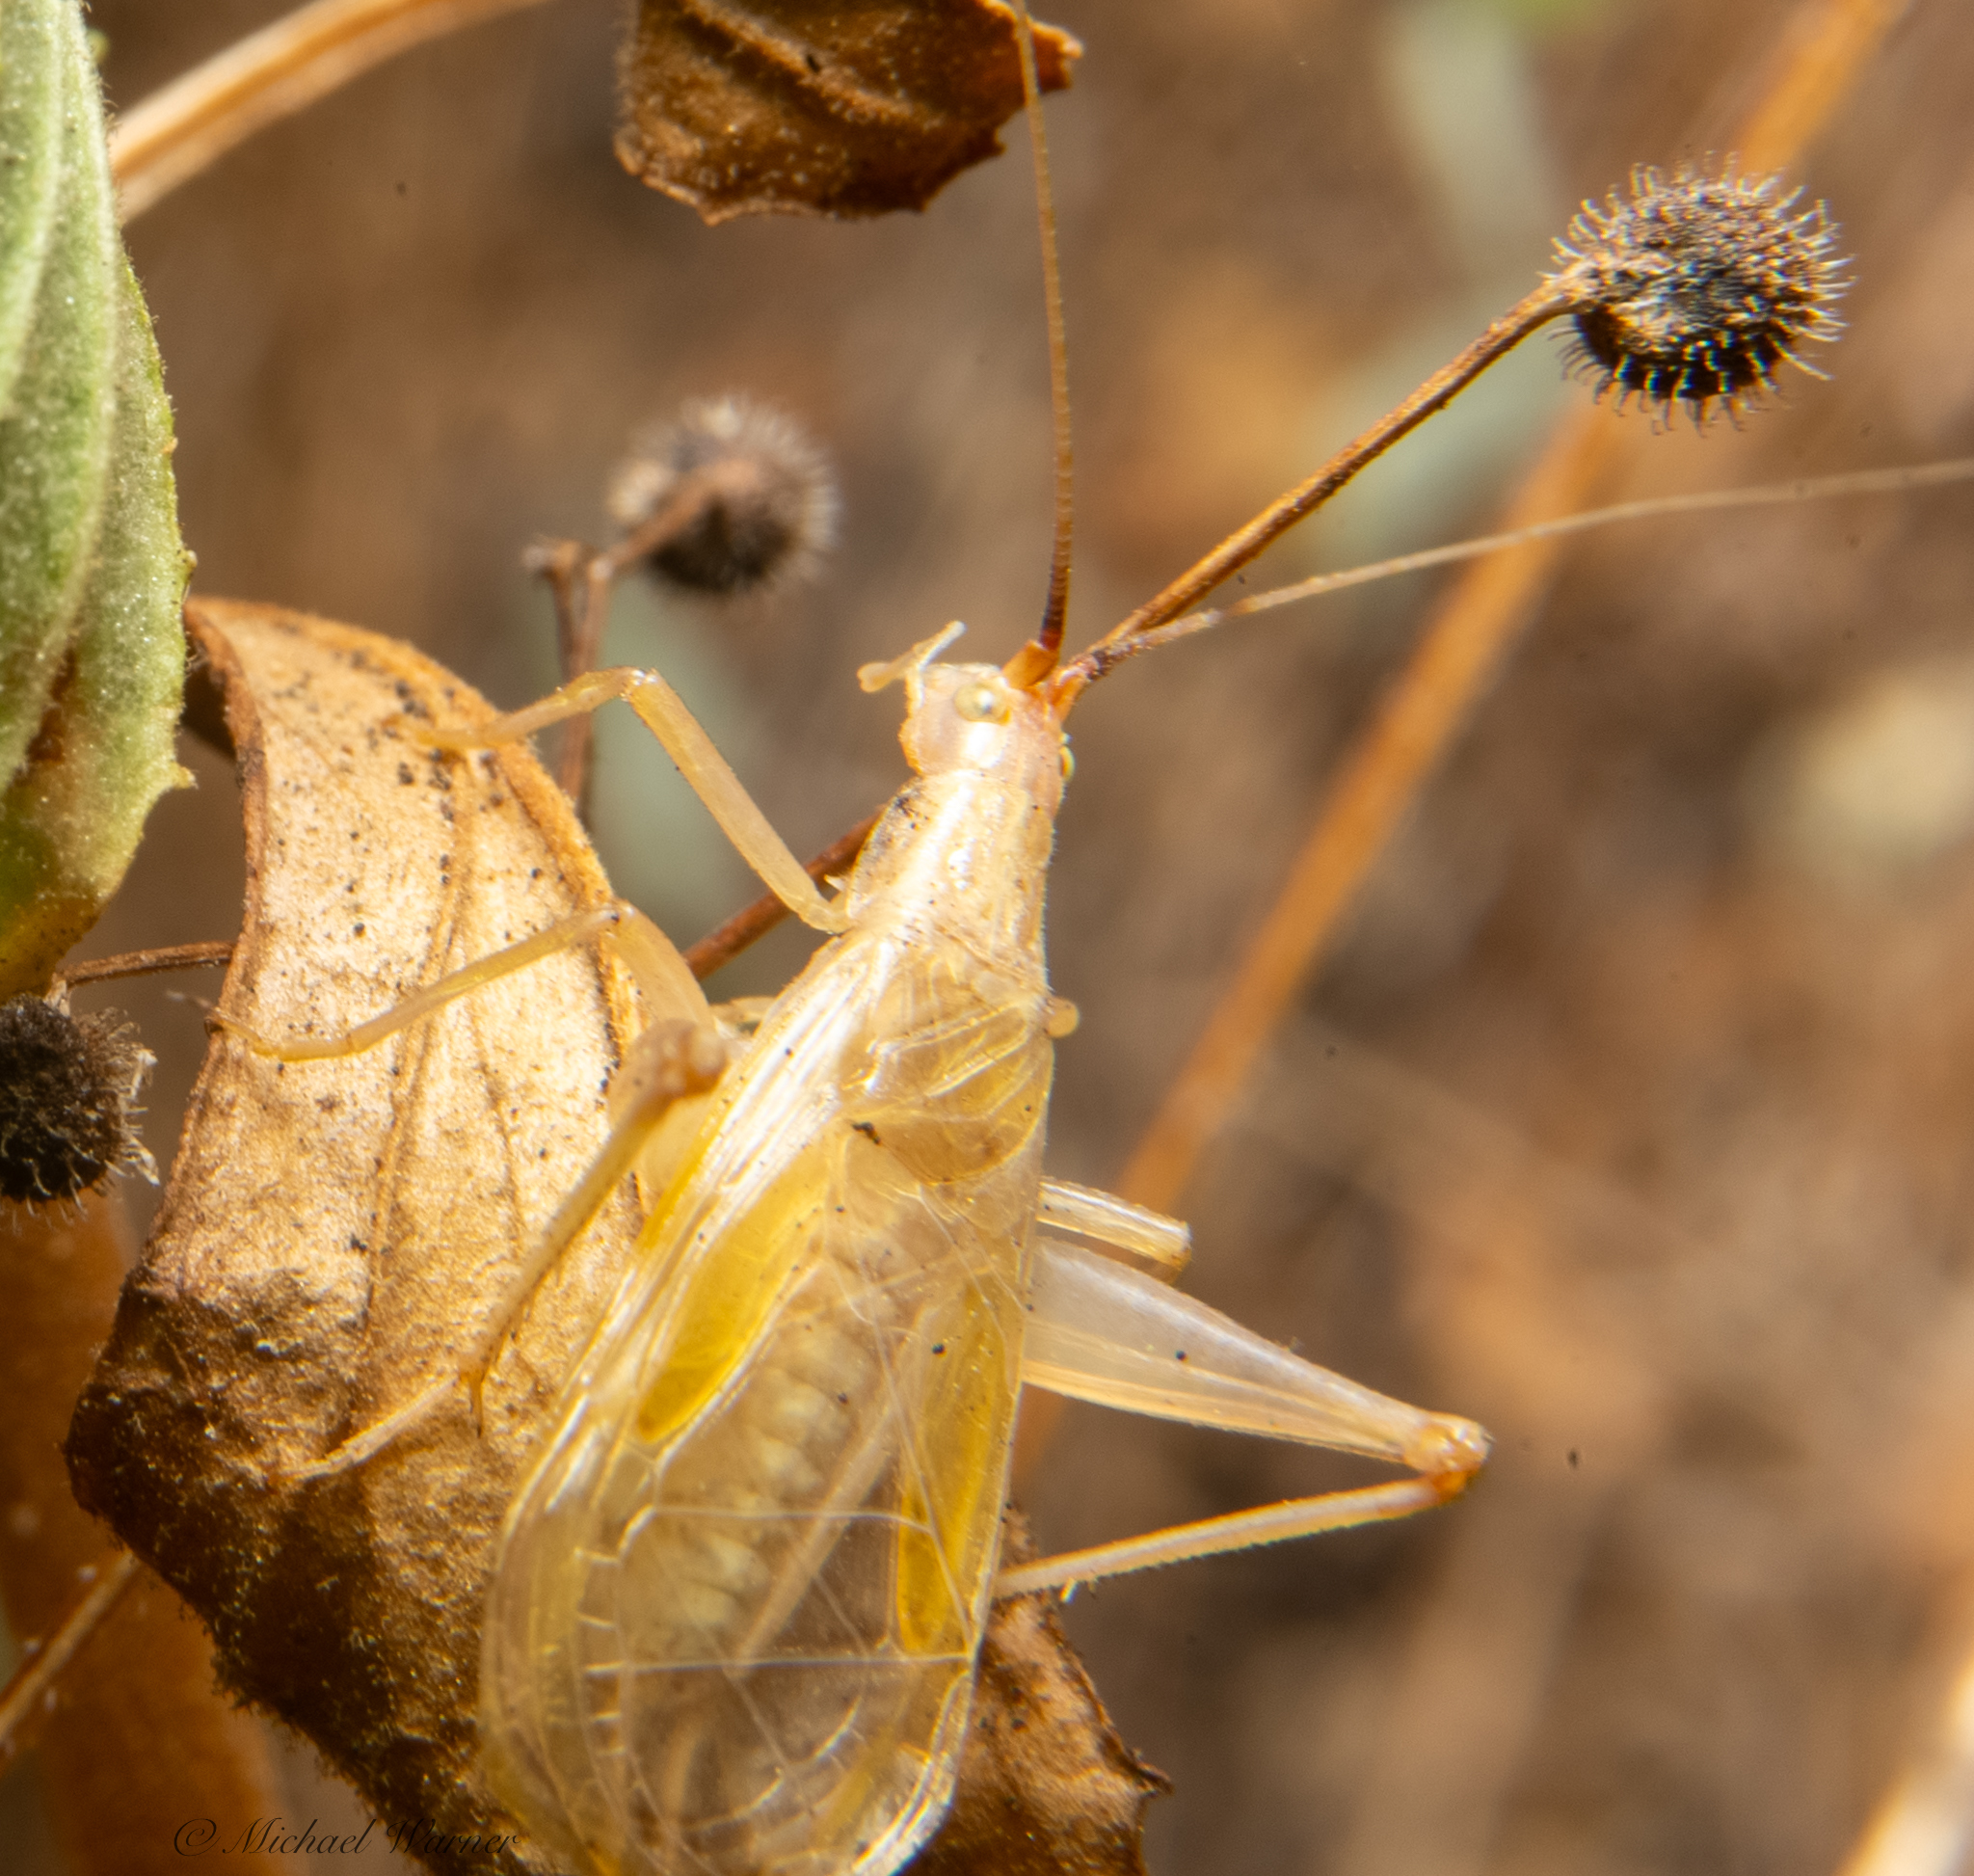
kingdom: Animalia
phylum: Arthropoda
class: Insecta
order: Orthoptera
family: Gryllidae
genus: Oecanthus
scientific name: Oecanthus californicus
